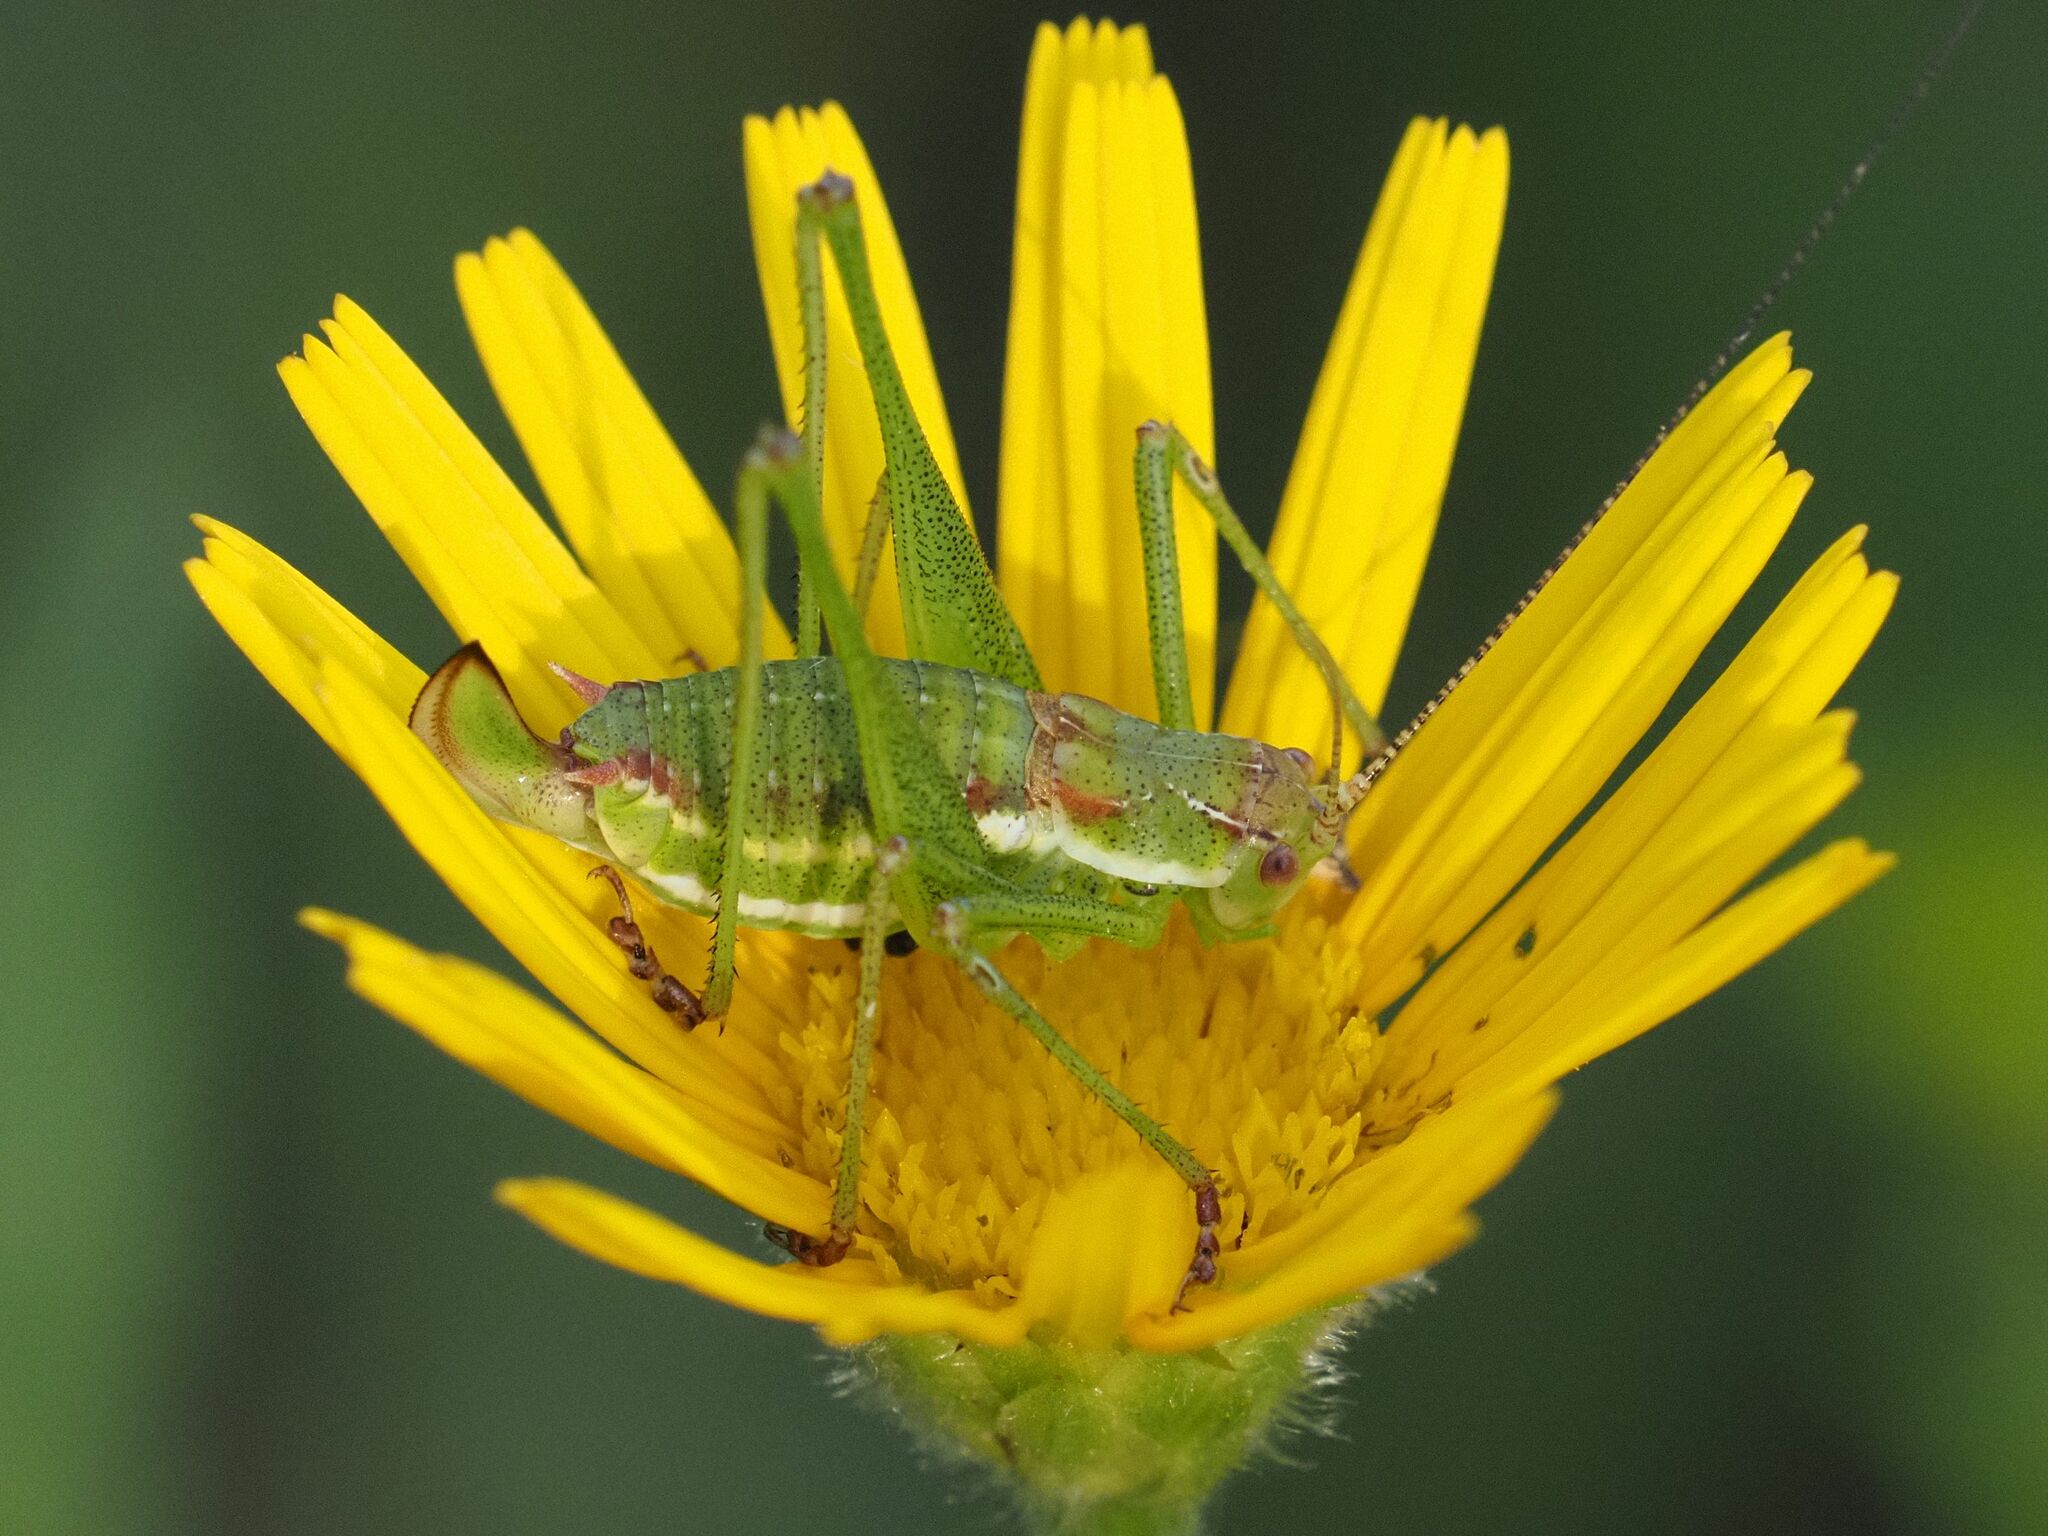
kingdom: Animalia
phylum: Arthropoda
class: Insecta
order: Orthoptera
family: Tettigoniidae
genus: Leptophyes
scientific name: Leptophyes albovittata
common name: Striped bush-cricket
